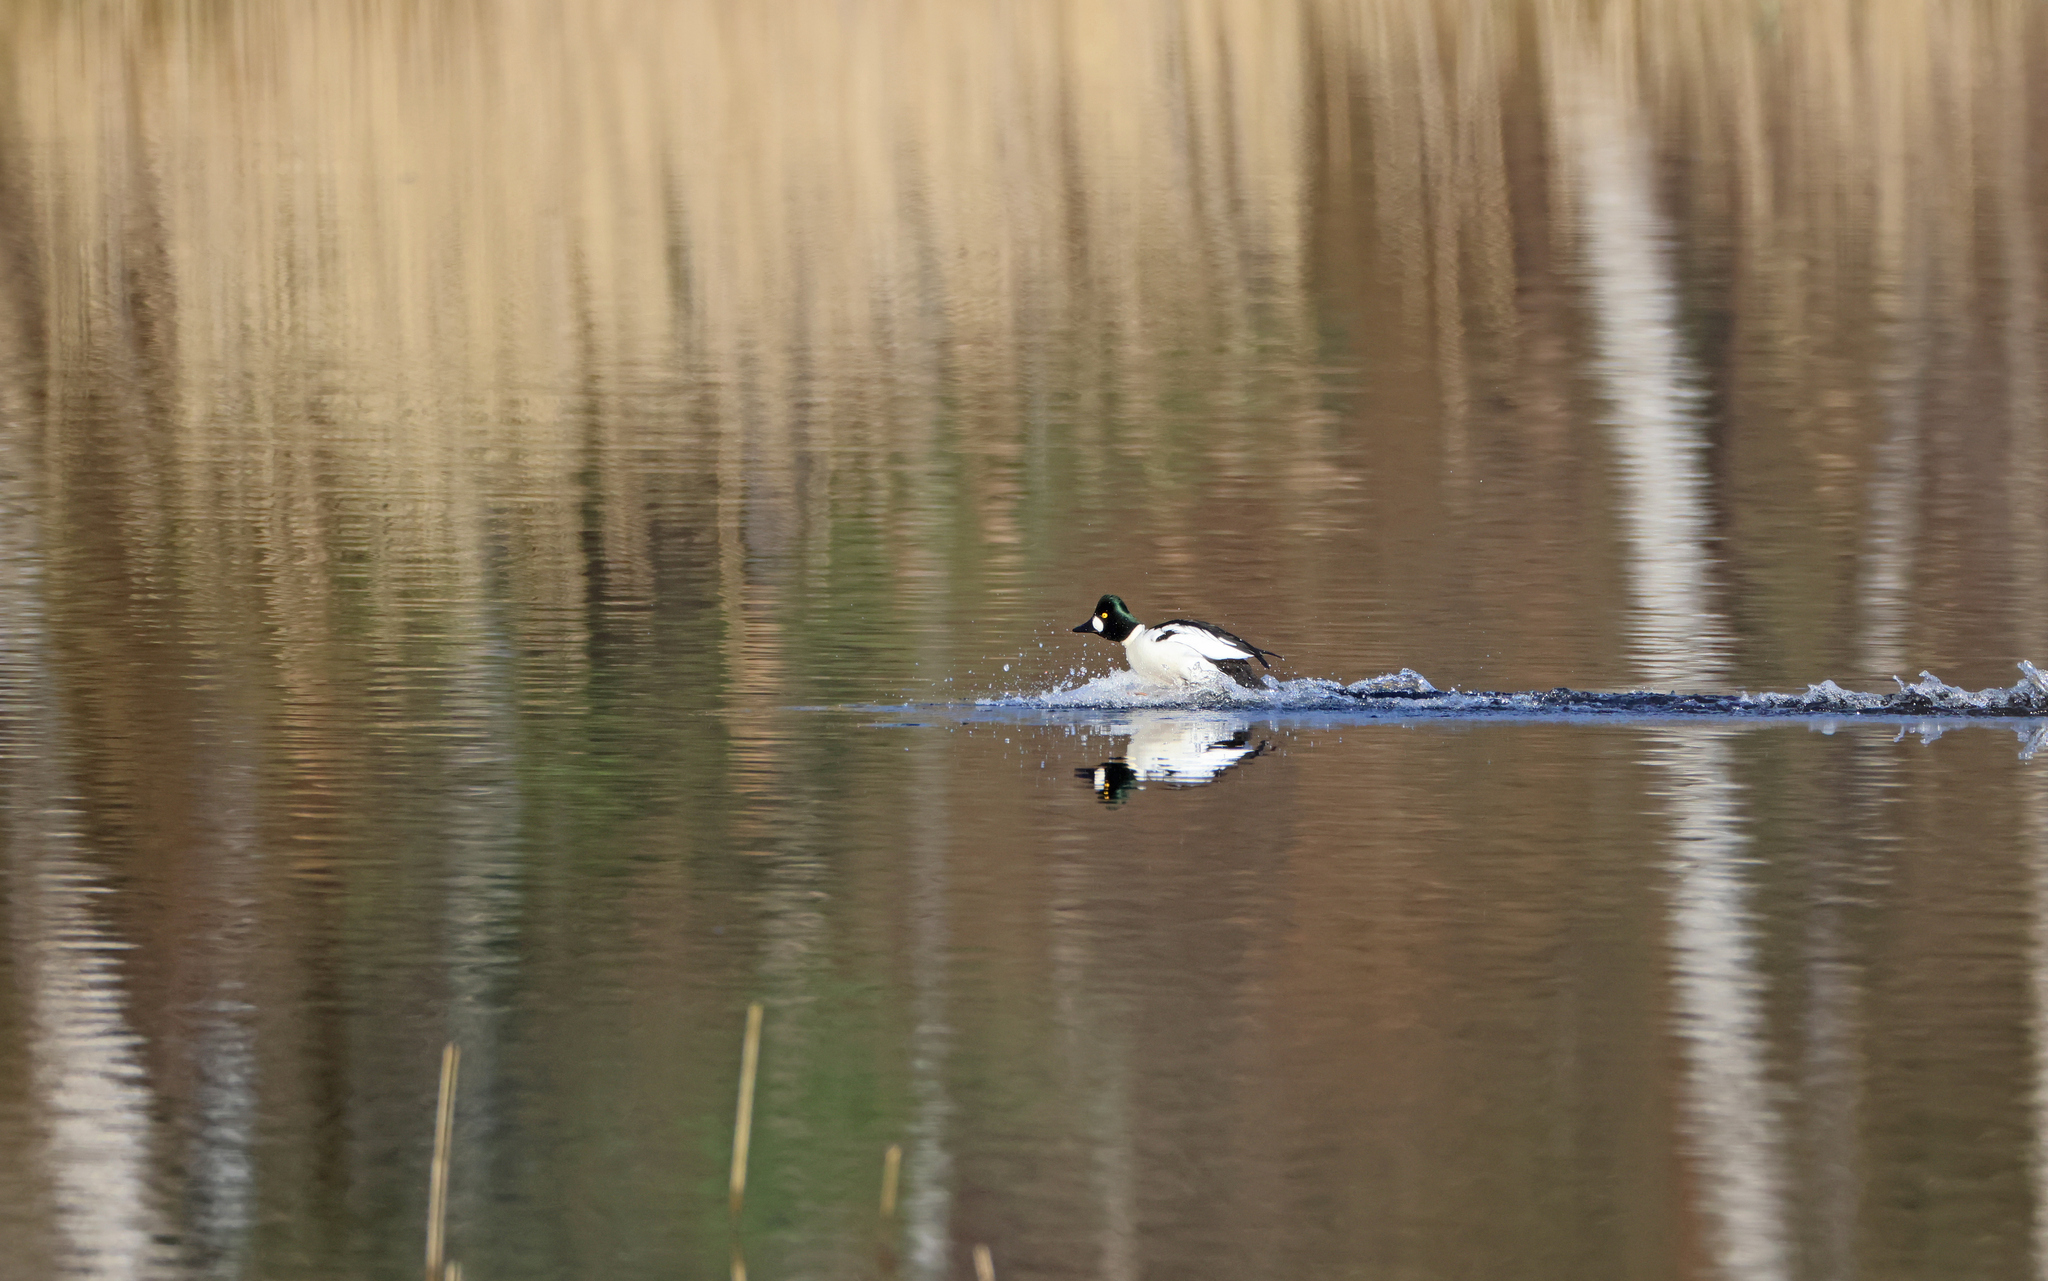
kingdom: Animalia
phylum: Chordata
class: Aves
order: Anseriformes
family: Anatidae
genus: Bucephala
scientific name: Bucephala clangula
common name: Common goldeneye
